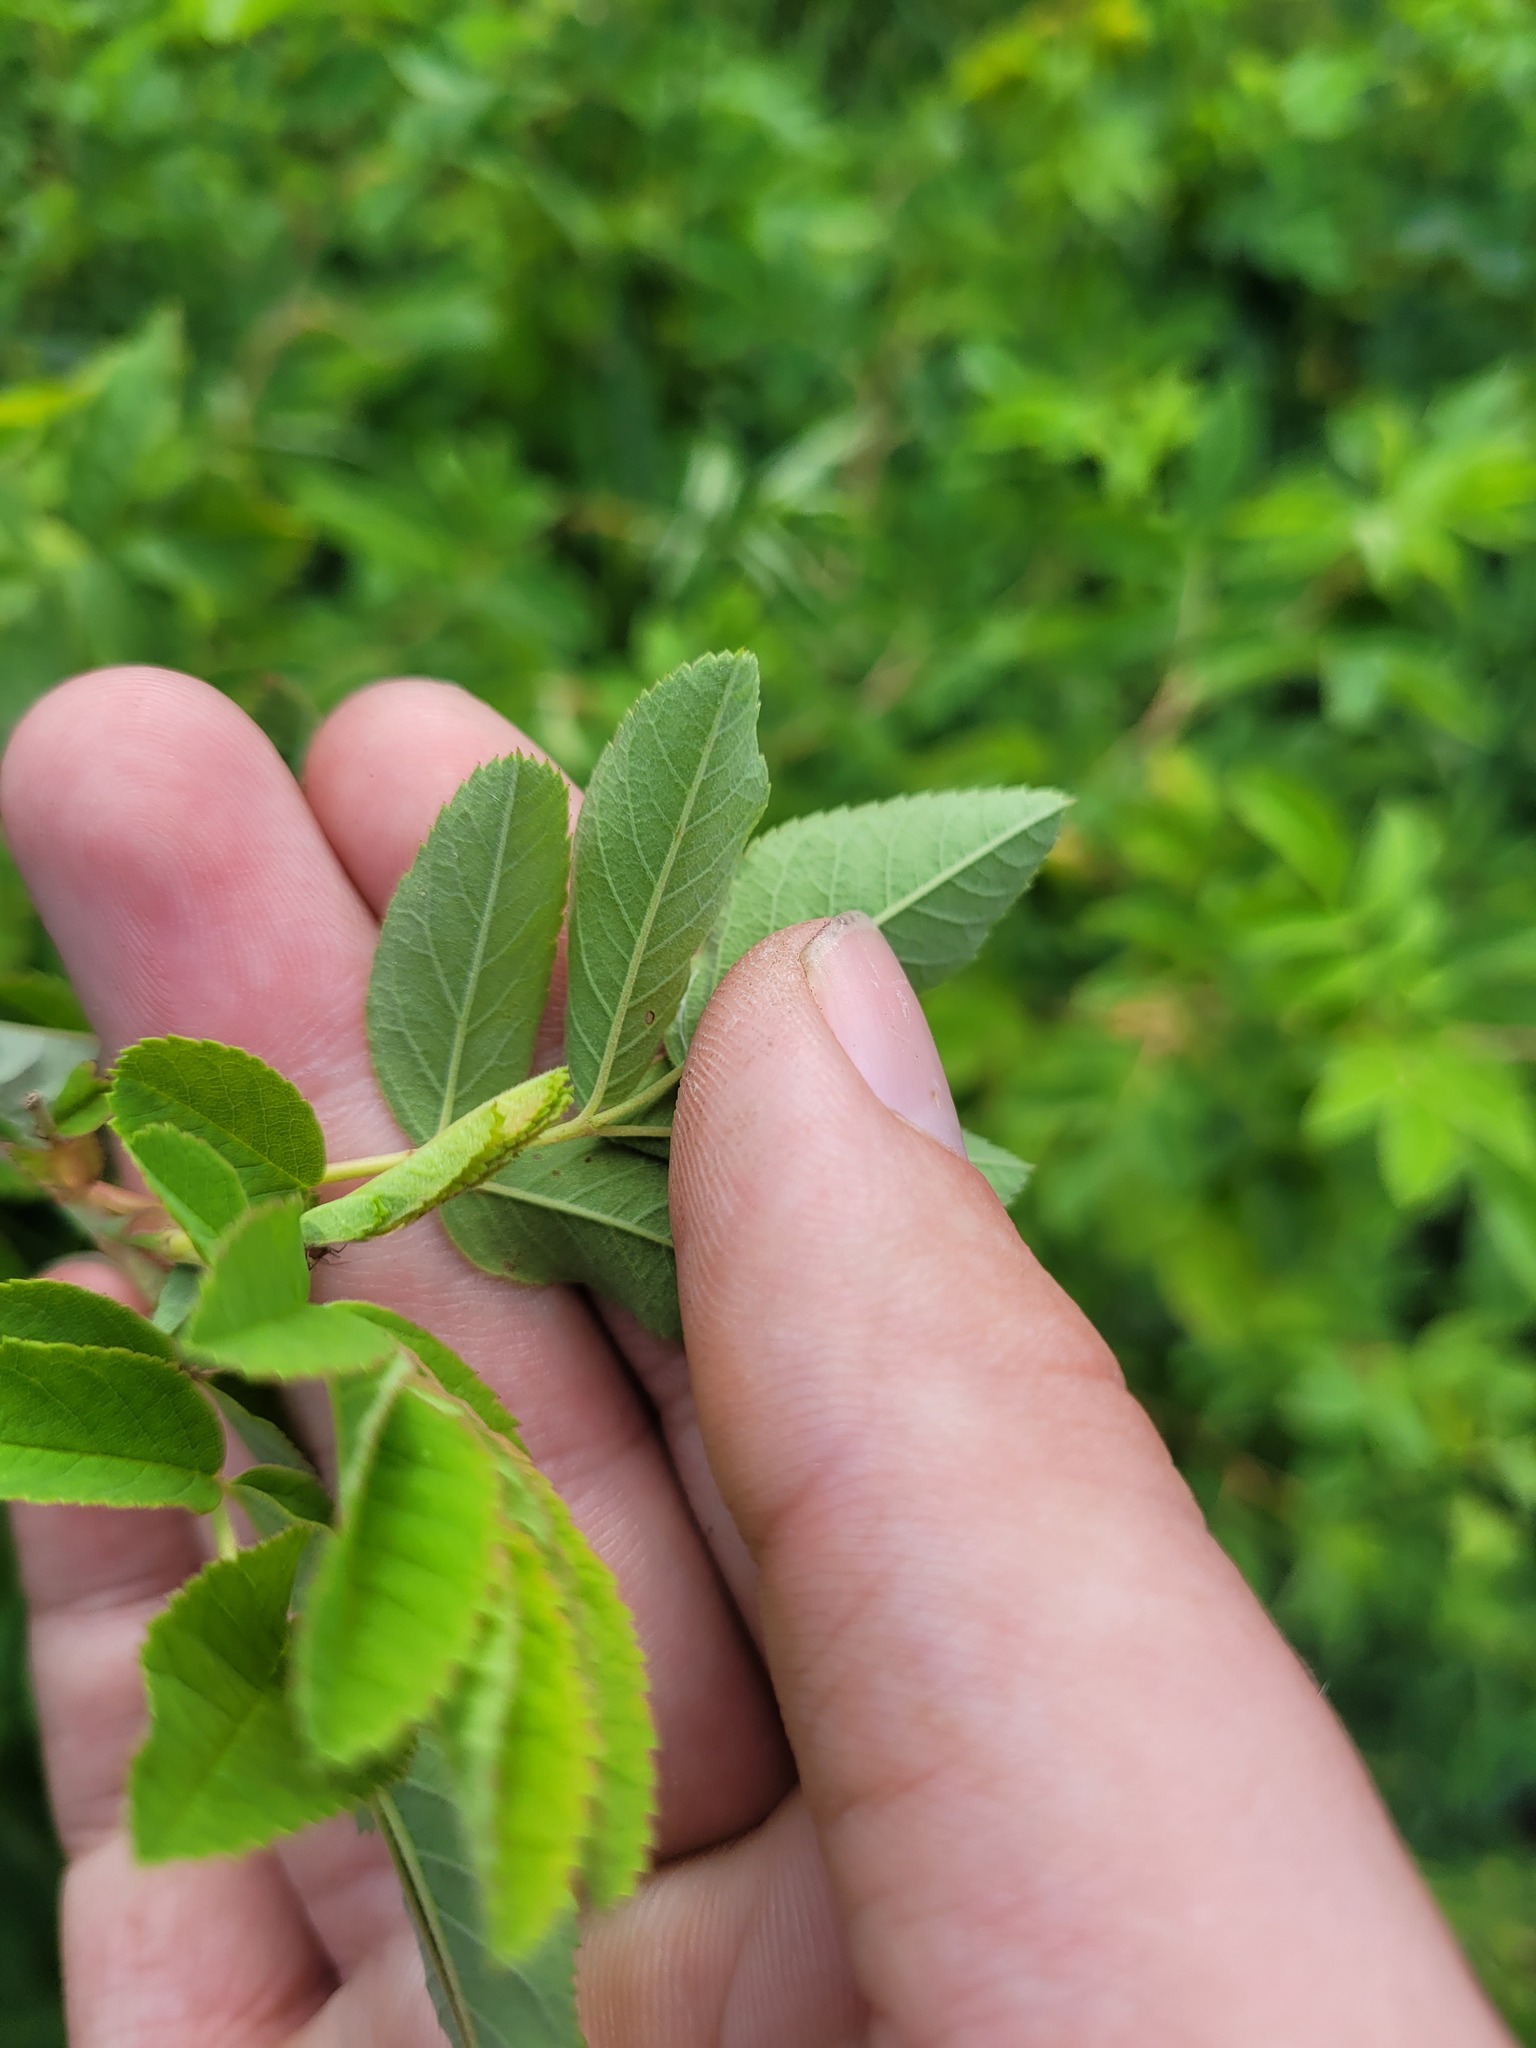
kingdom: Plantae
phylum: Tracheophyta
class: Magnoliopsida
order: Rosales
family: Rosaceae
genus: Rosa
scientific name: Rosa majalis
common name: Cinnamon rose
